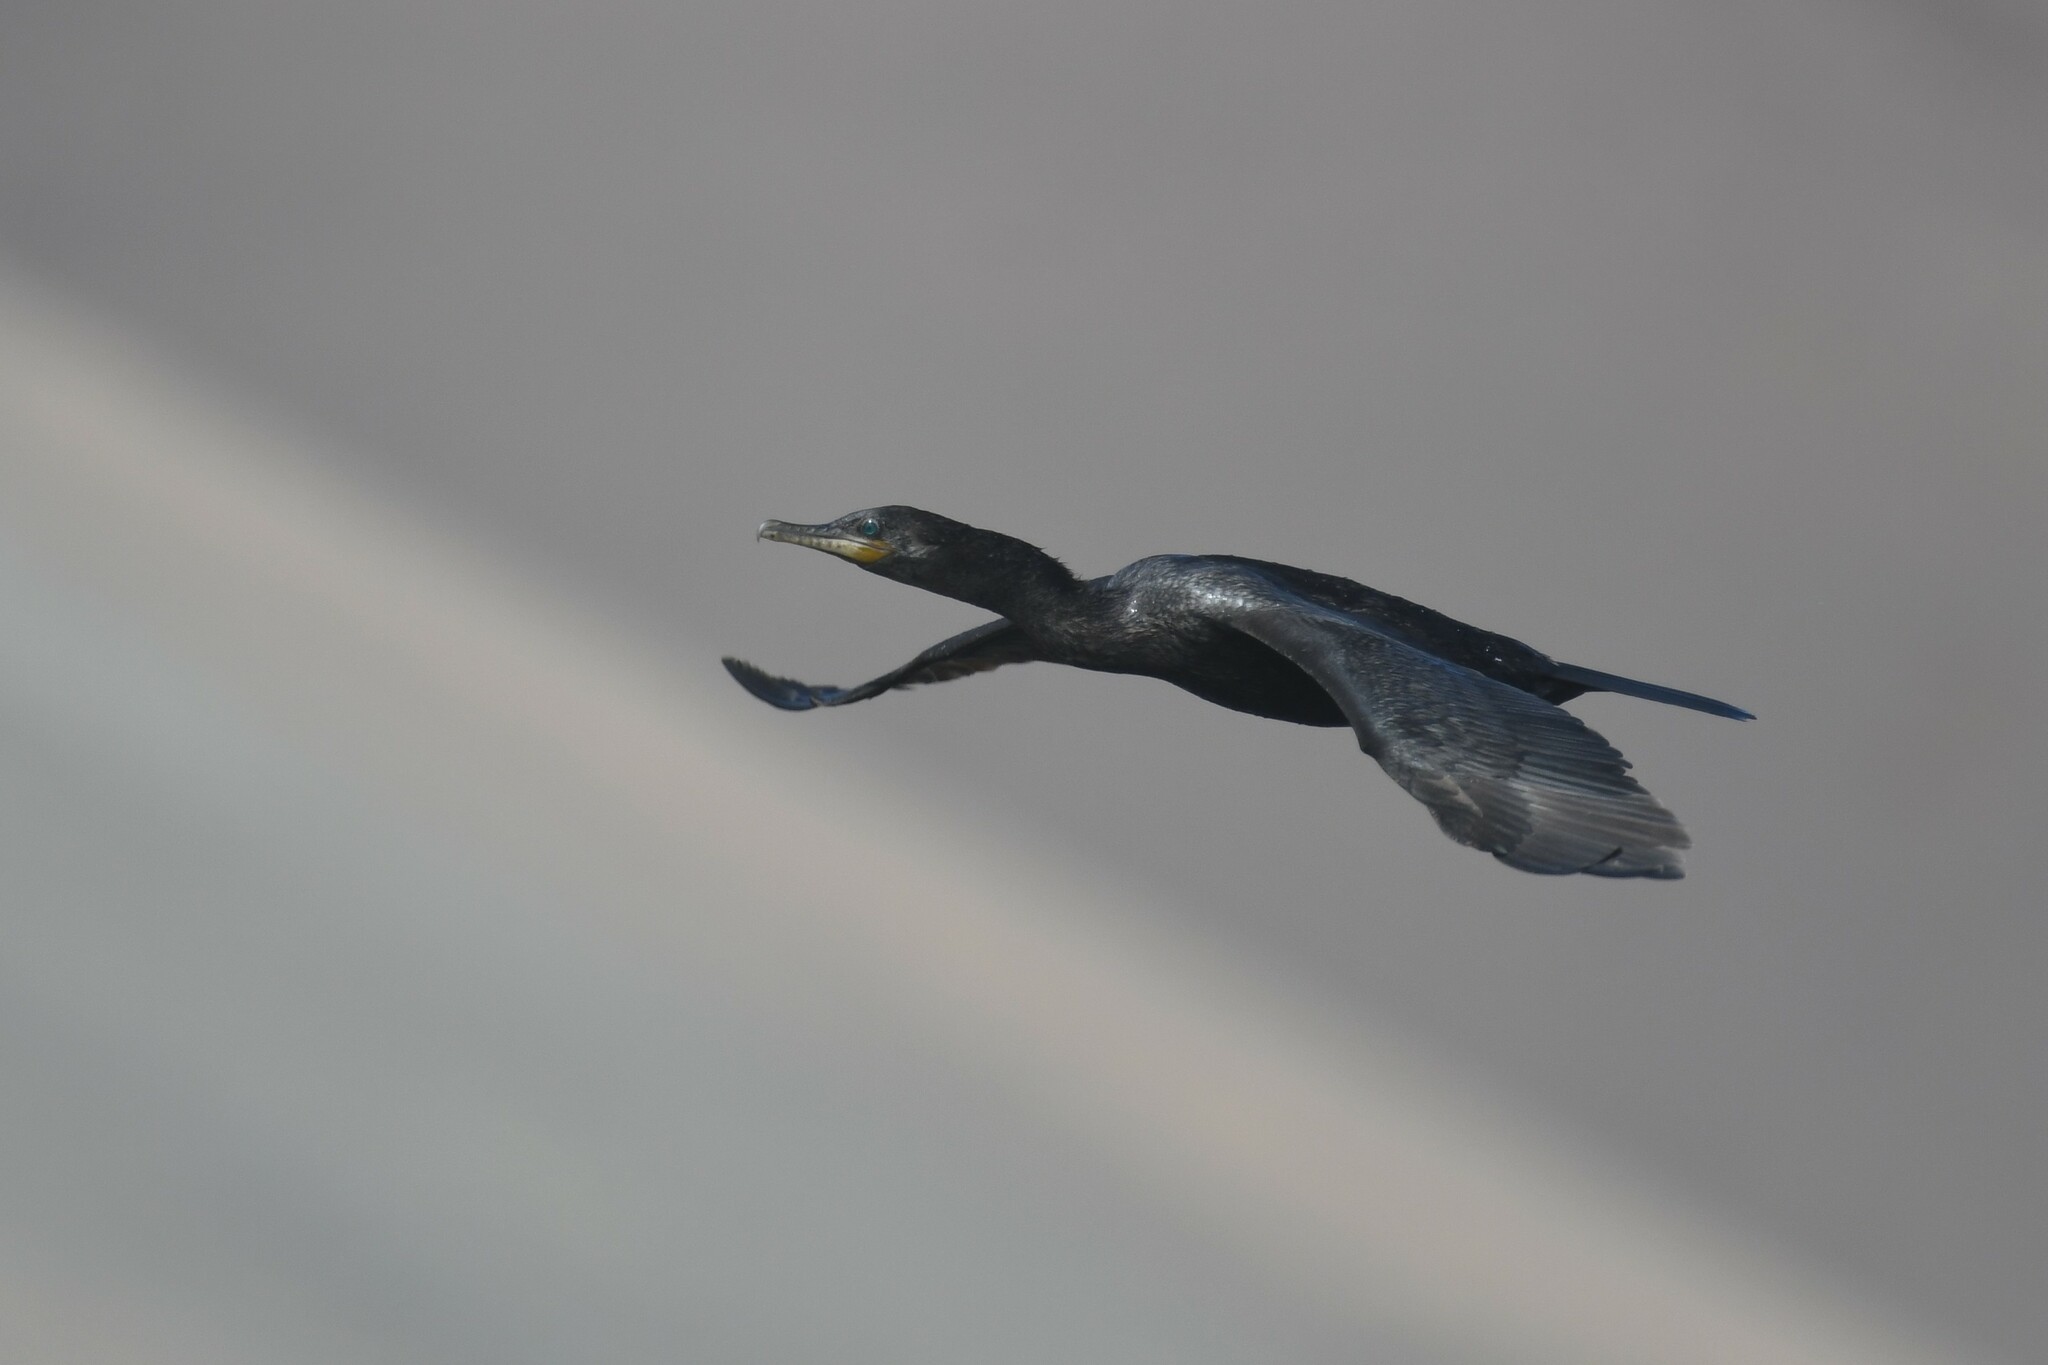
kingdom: Animalia
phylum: Chordata
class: Aves
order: Suliformes
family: Phalacrocoracidae
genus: Phalacrocorax
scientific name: Phalacrocorax brasilianus
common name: Neotropic cormorant
